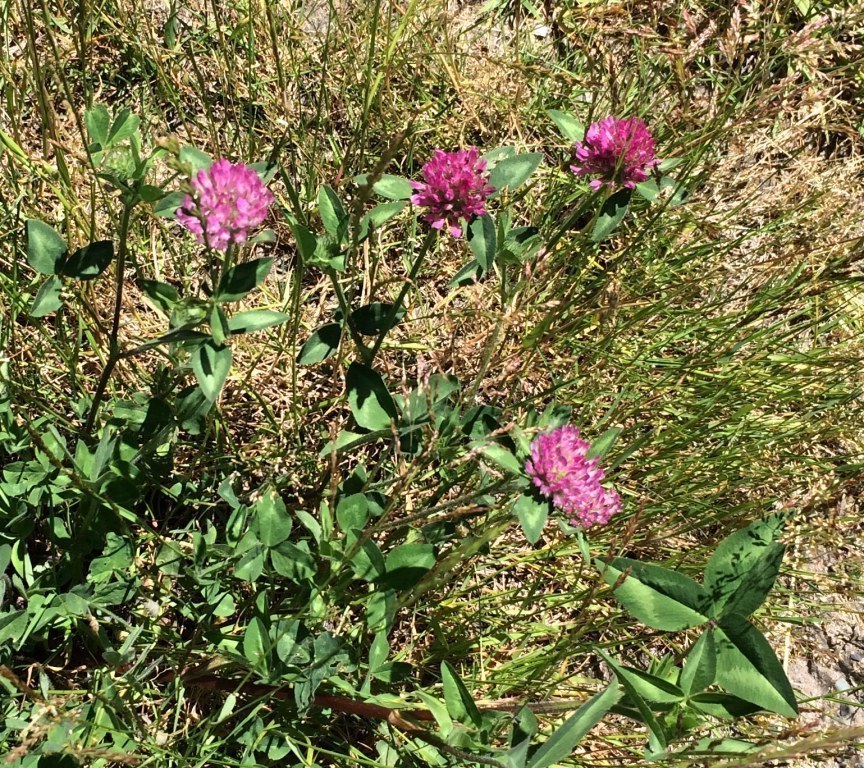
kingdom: Plantae
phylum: Tracheophyta
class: Magnoliopsida
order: Fabales
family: Fabaceae
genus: Trifolium
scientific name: Trifolium pratense
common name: Red clover
